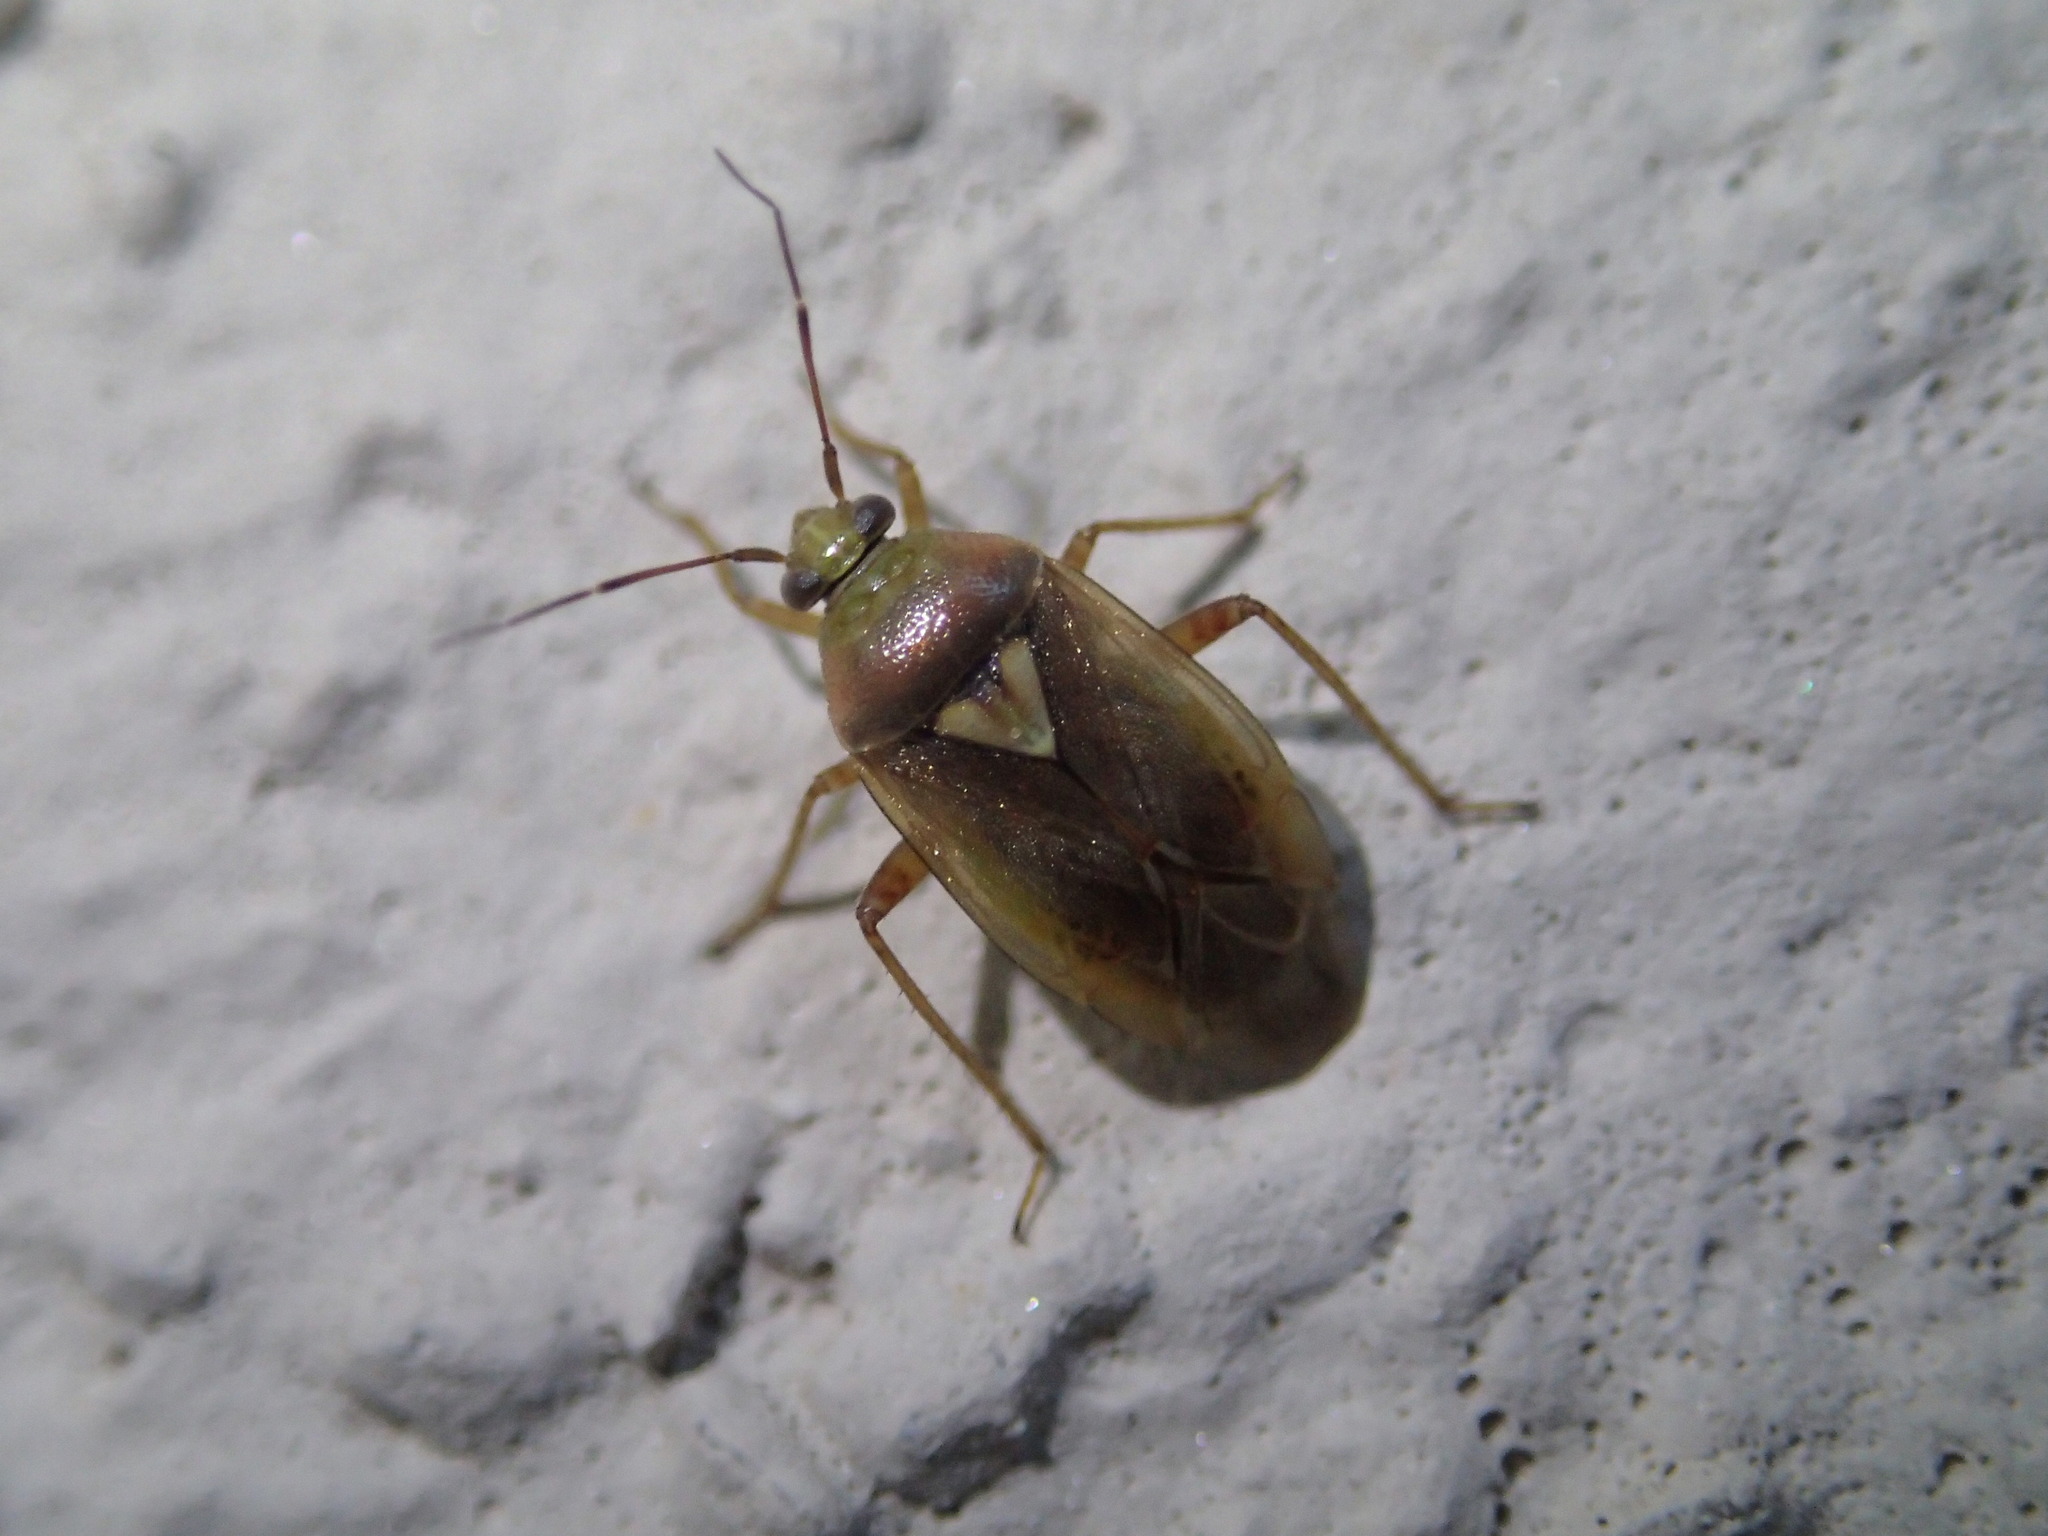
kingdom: Animalia
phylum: Arthropoda
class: Insecta
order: Hemiptera
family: Miridae
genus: Lygus
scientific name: Lygus rugulipennis
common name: European tarnished plant bug
